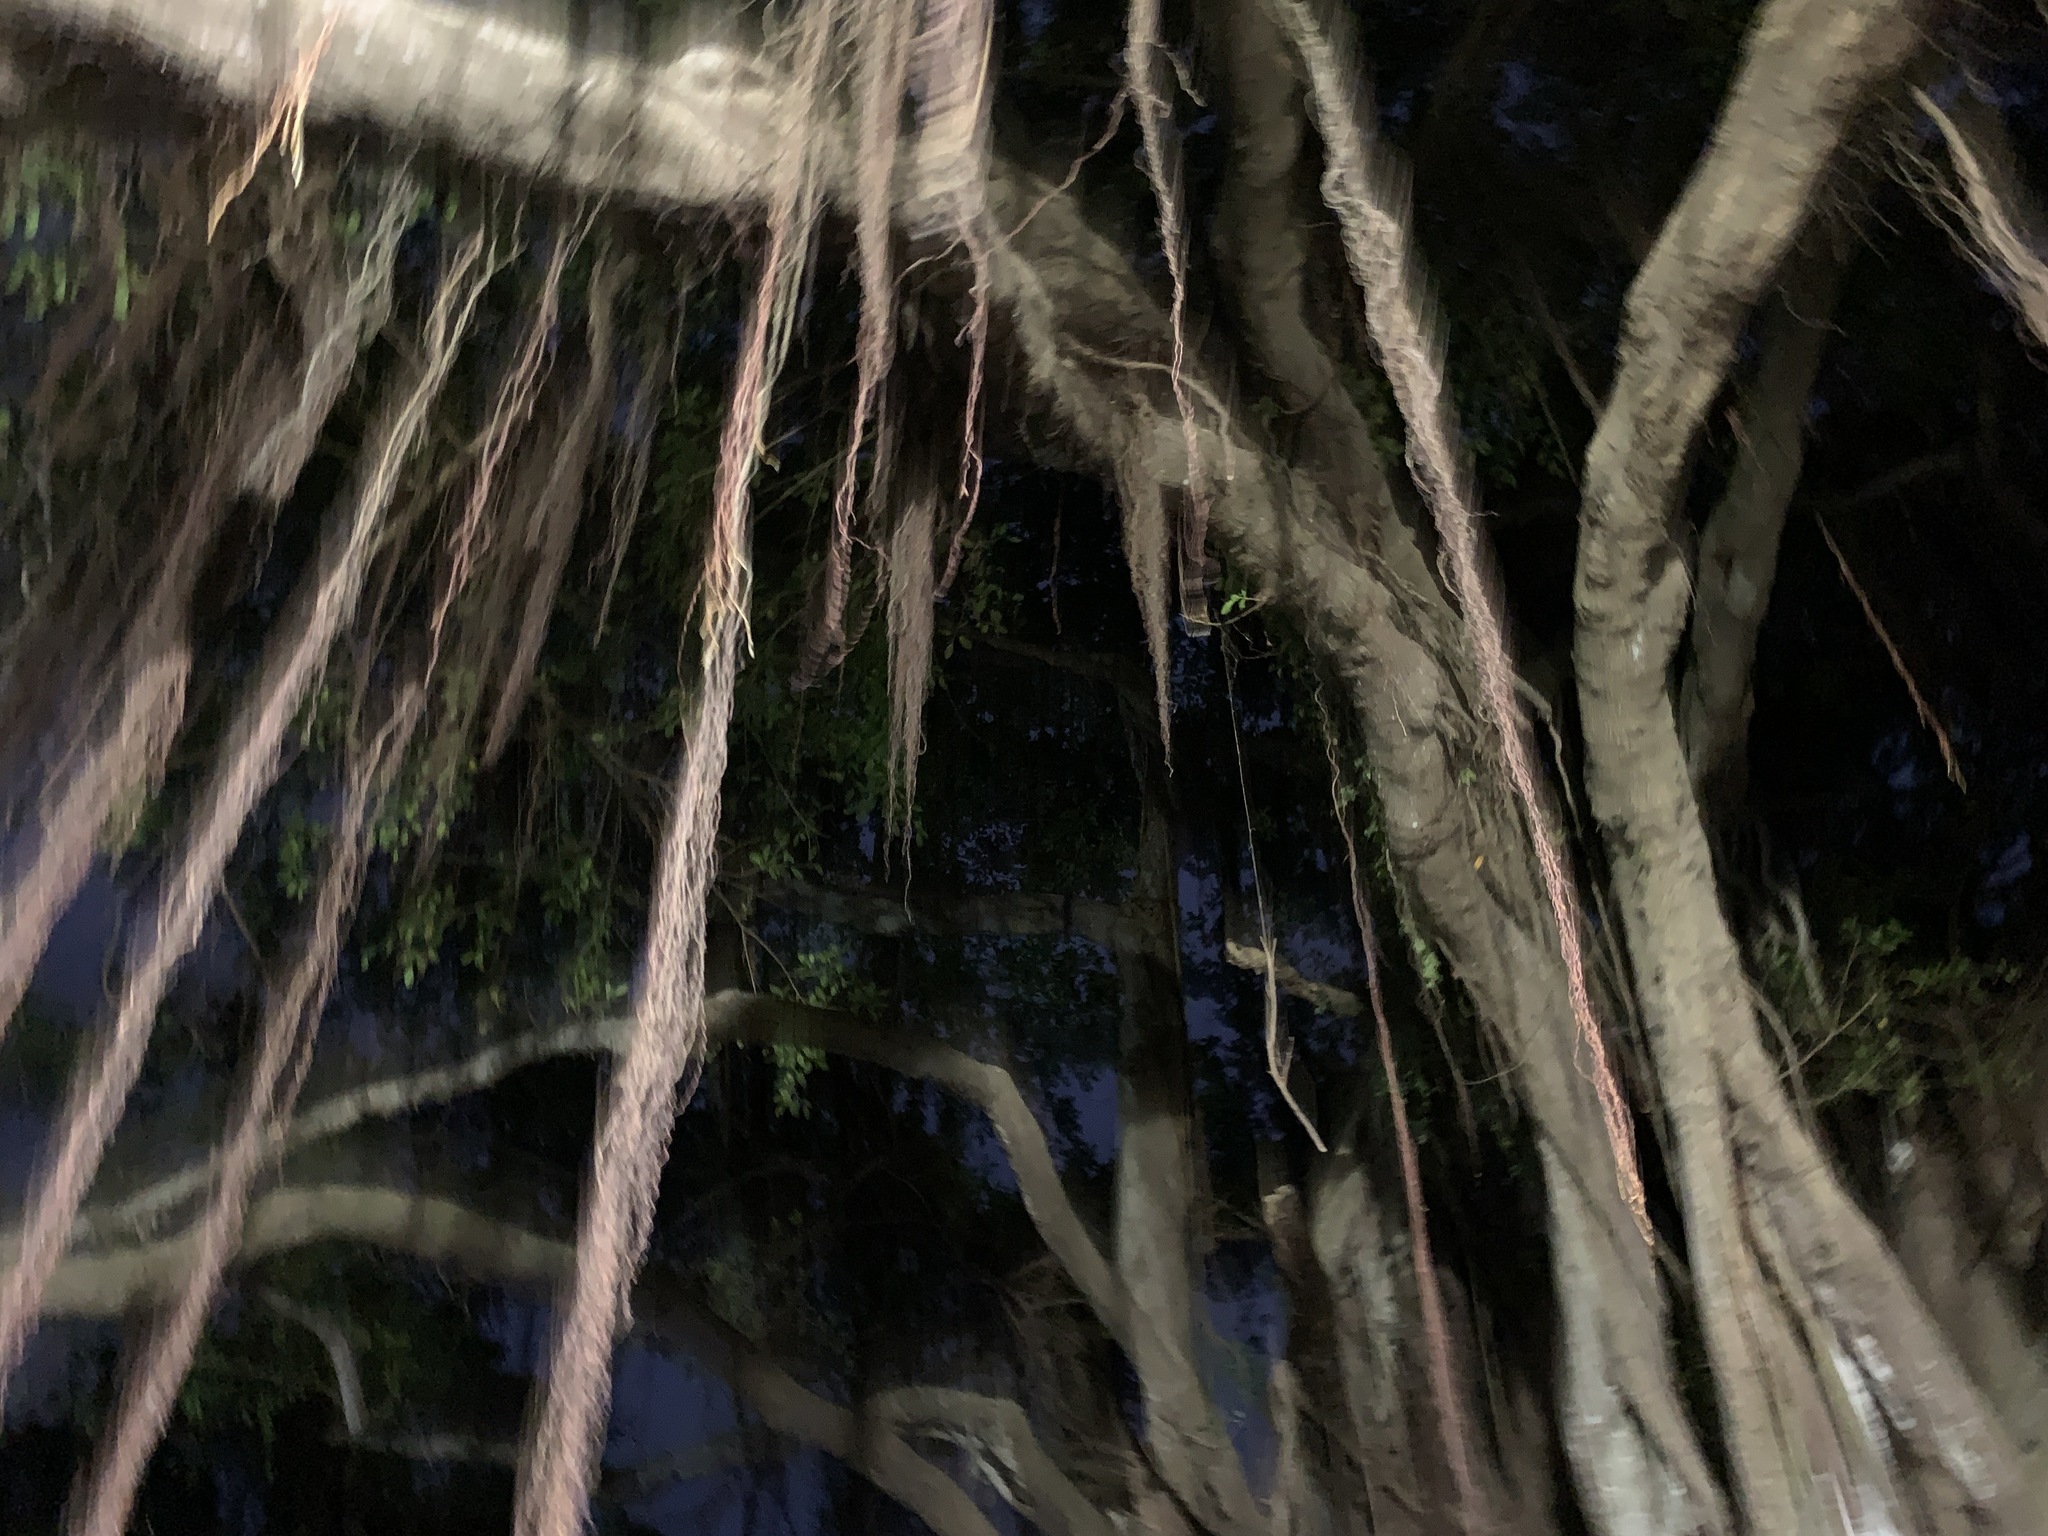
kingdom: Plantae
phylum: Tracheophyta
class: Magnoliopsida
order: Rosales
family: Moraceae
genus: Ficus
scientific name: Ficus microcarpa
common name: Chinese banyan
